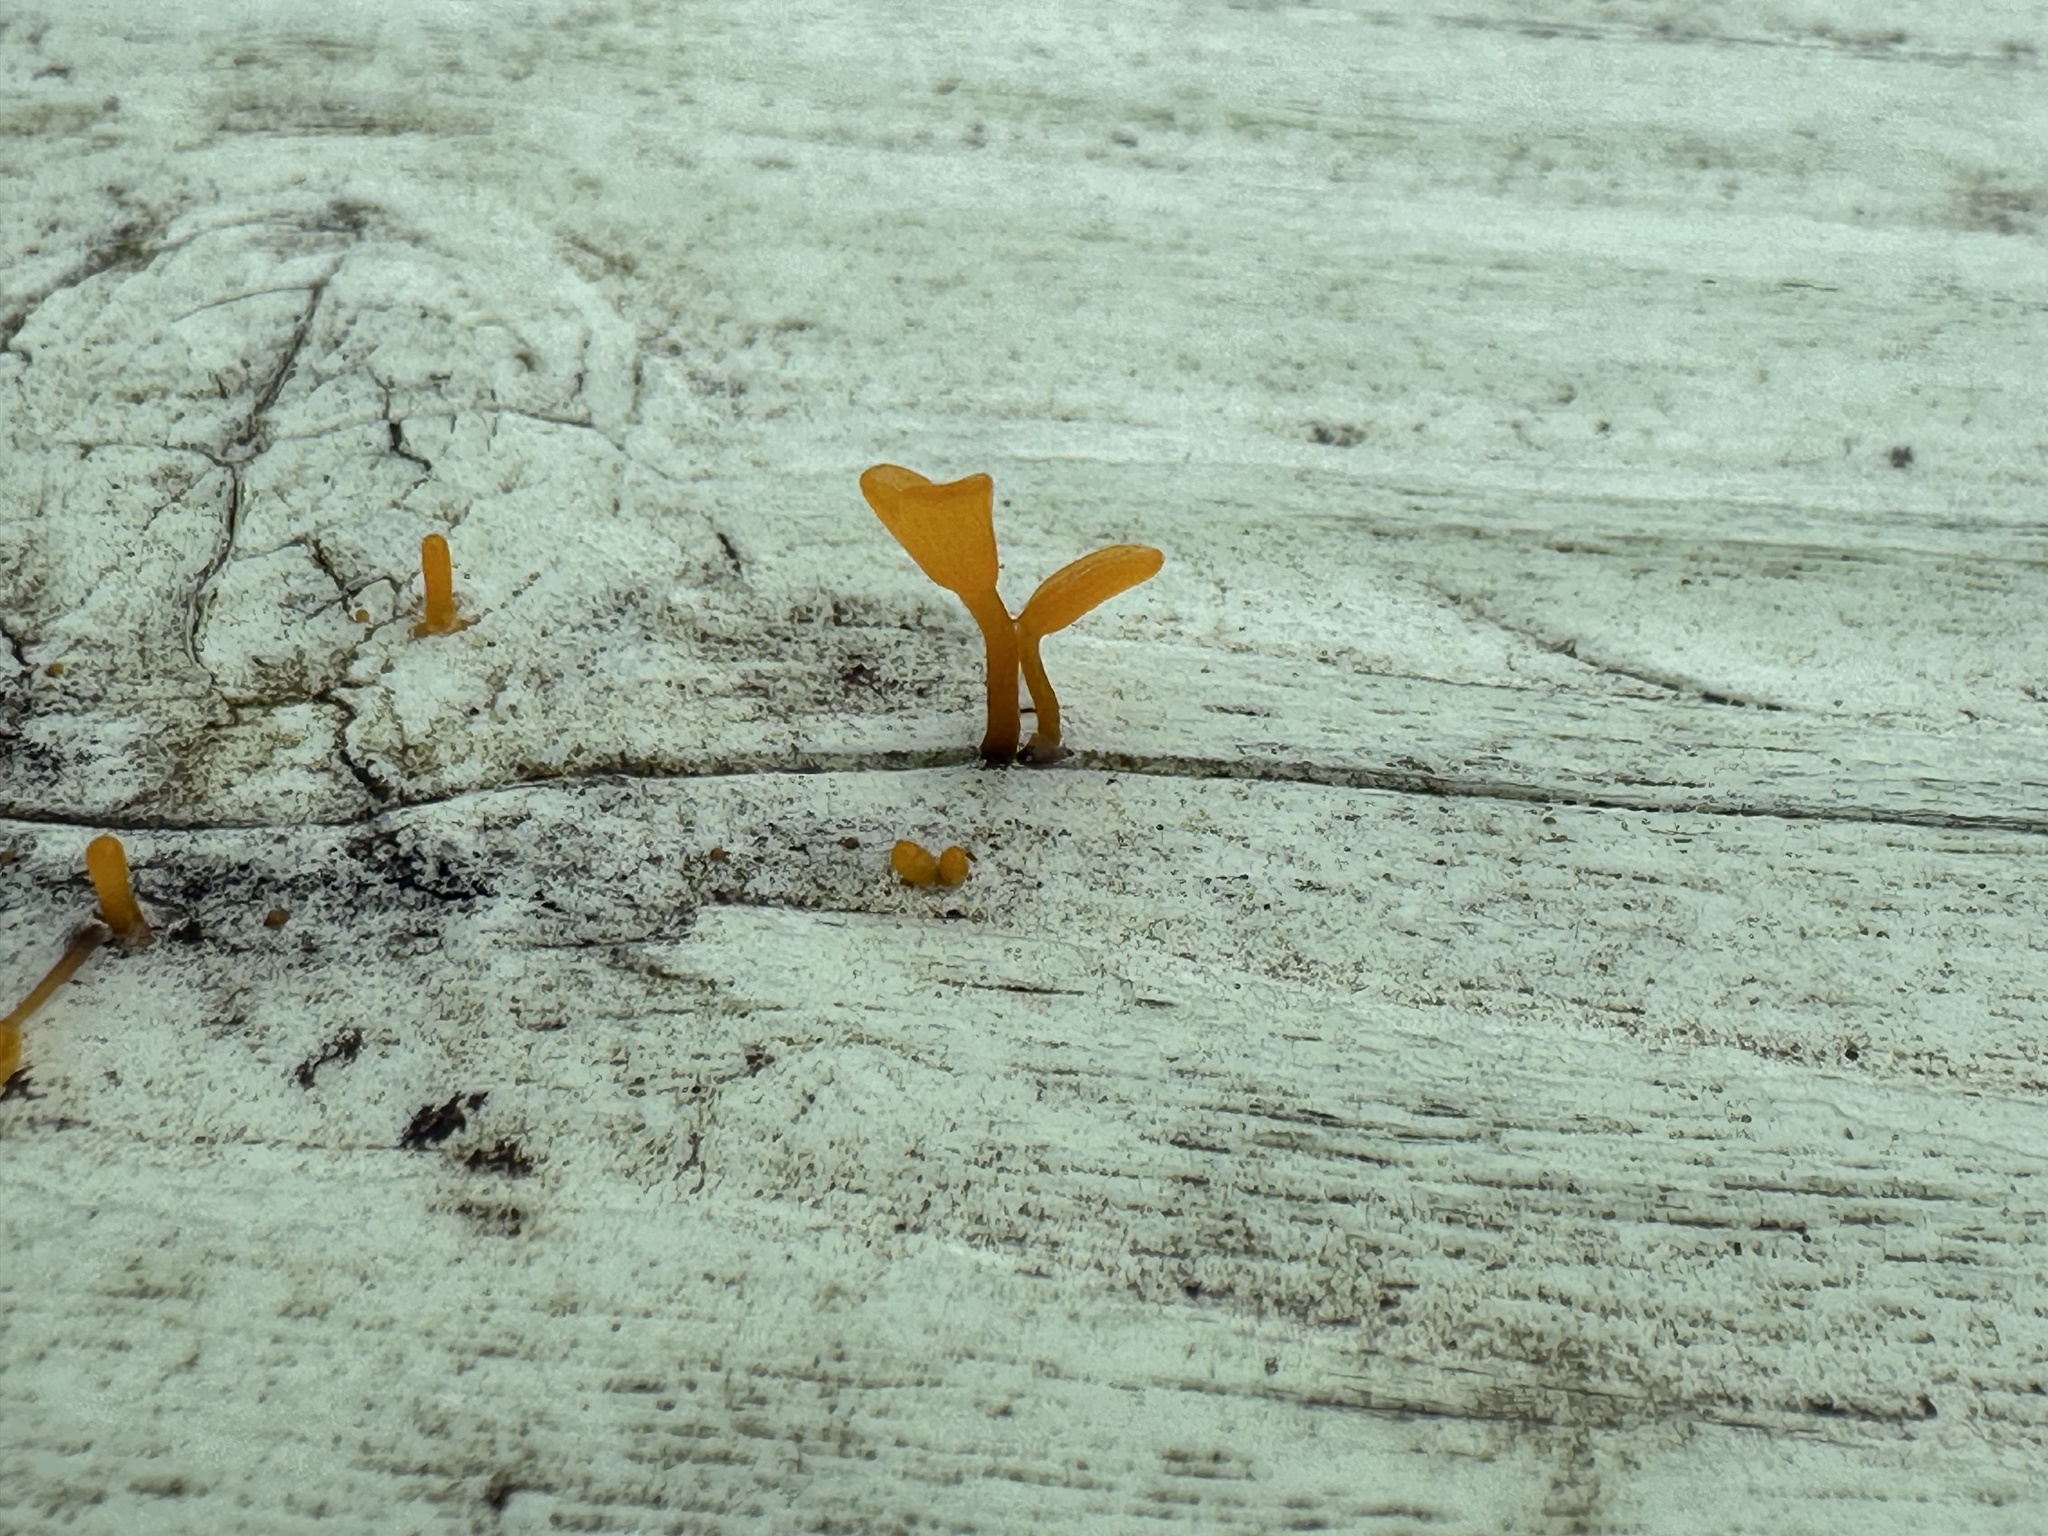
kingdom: Fungi
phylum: Basidiomycota
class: Dacrymycetes
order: Dacrymycetales
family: Dacrymycetaceae
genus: Dacrymyces
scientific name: Dacrymyces spathularius
